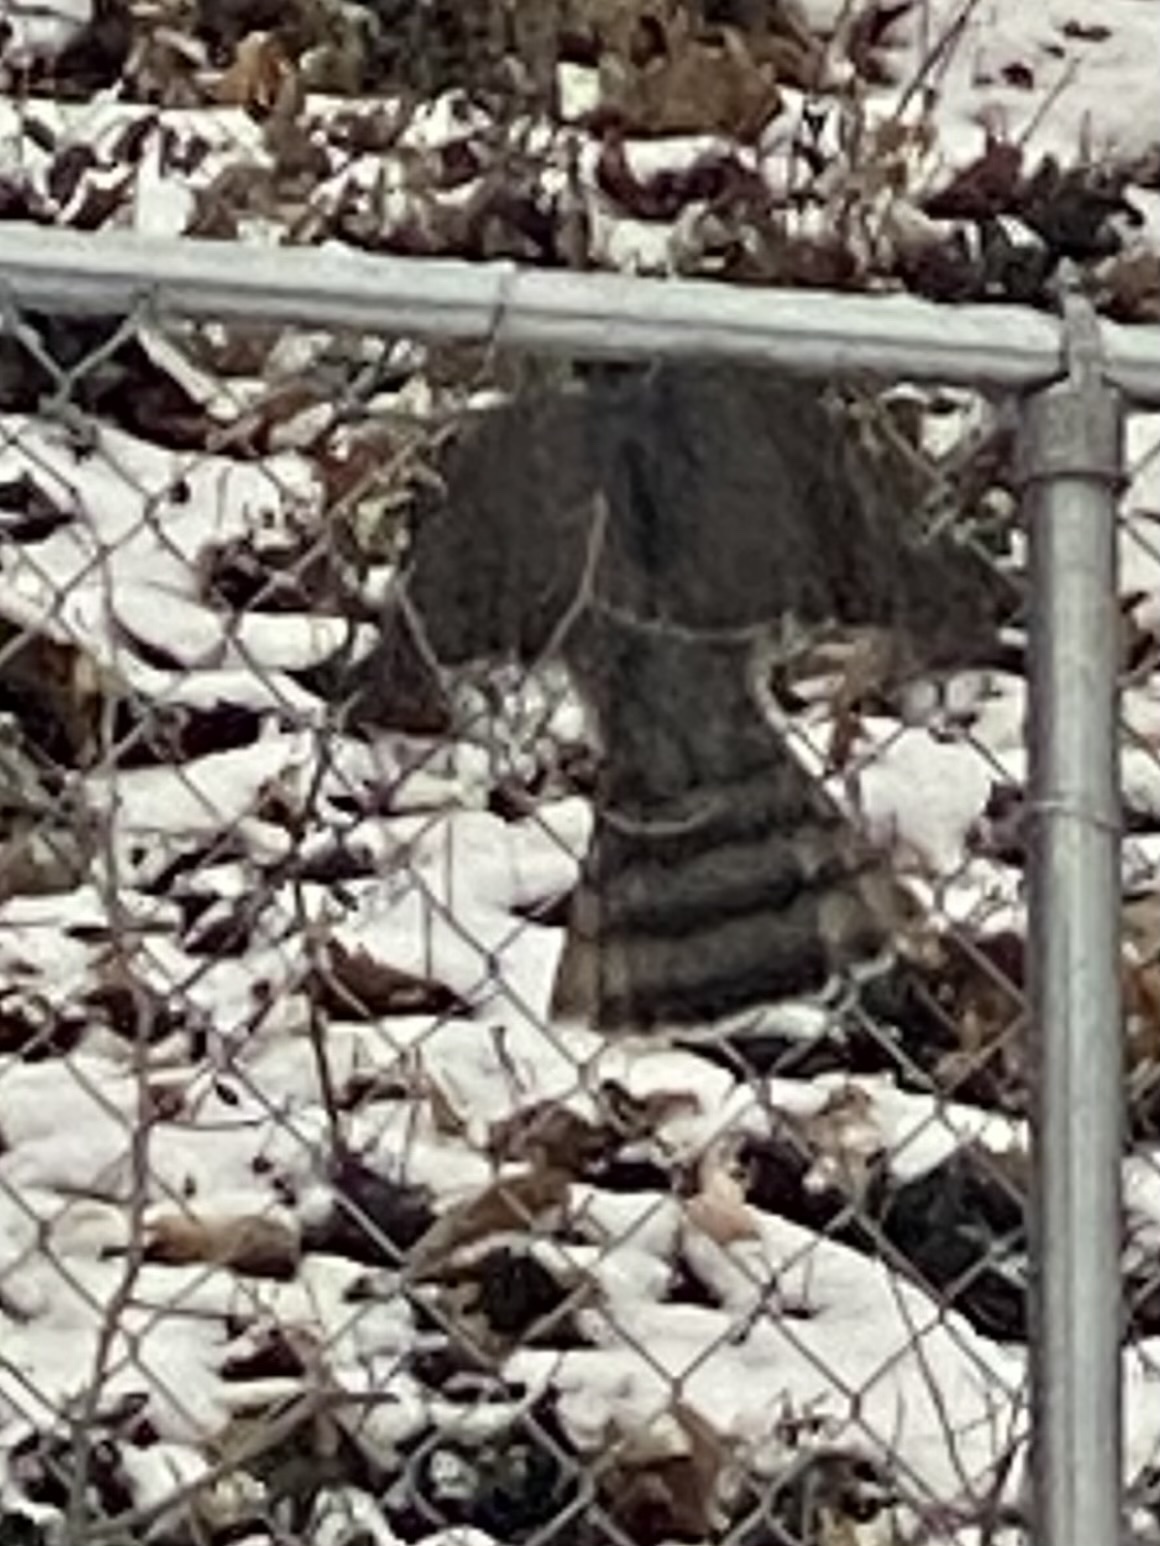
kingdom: Animalia
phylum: Chordata
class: Aves
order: Accipitriformes
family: Accipitridae
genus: Accipiter
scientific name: Accipiter cooperii
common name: Cooper's hawk
